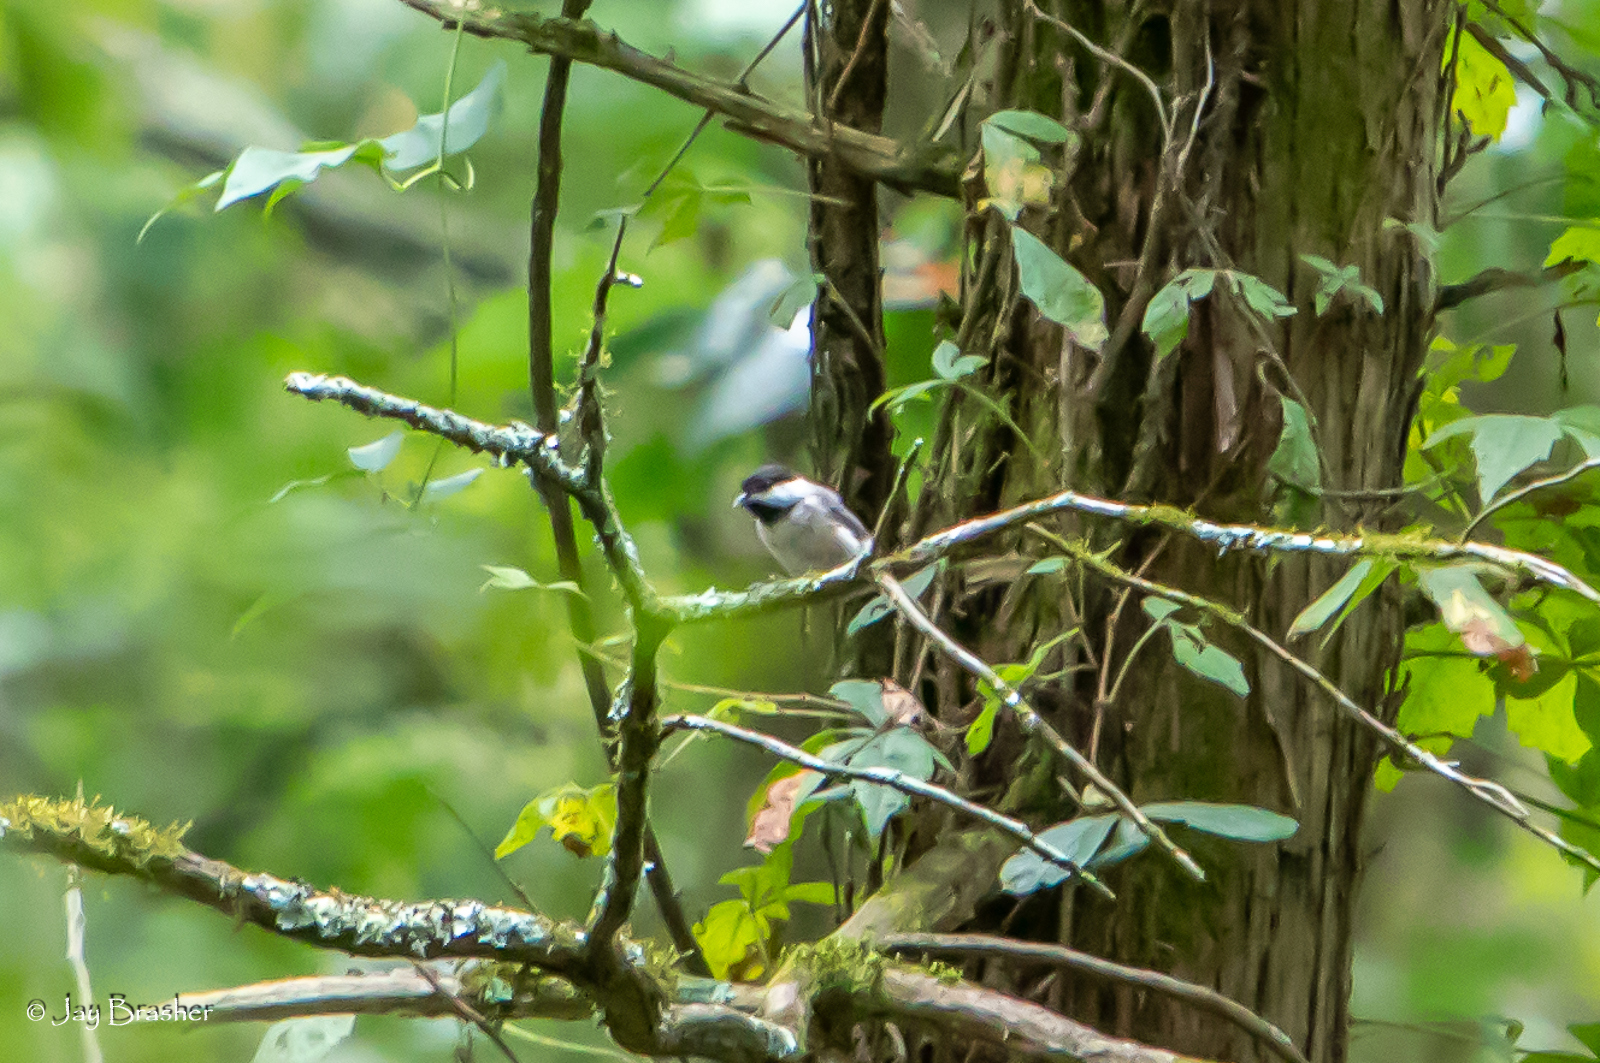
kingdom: Animalia
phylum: Chordata
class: Aves
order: Passeriformes
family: Paridae
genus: Poecile
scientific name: Poecile carolinensis
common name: Carolina chickadee
